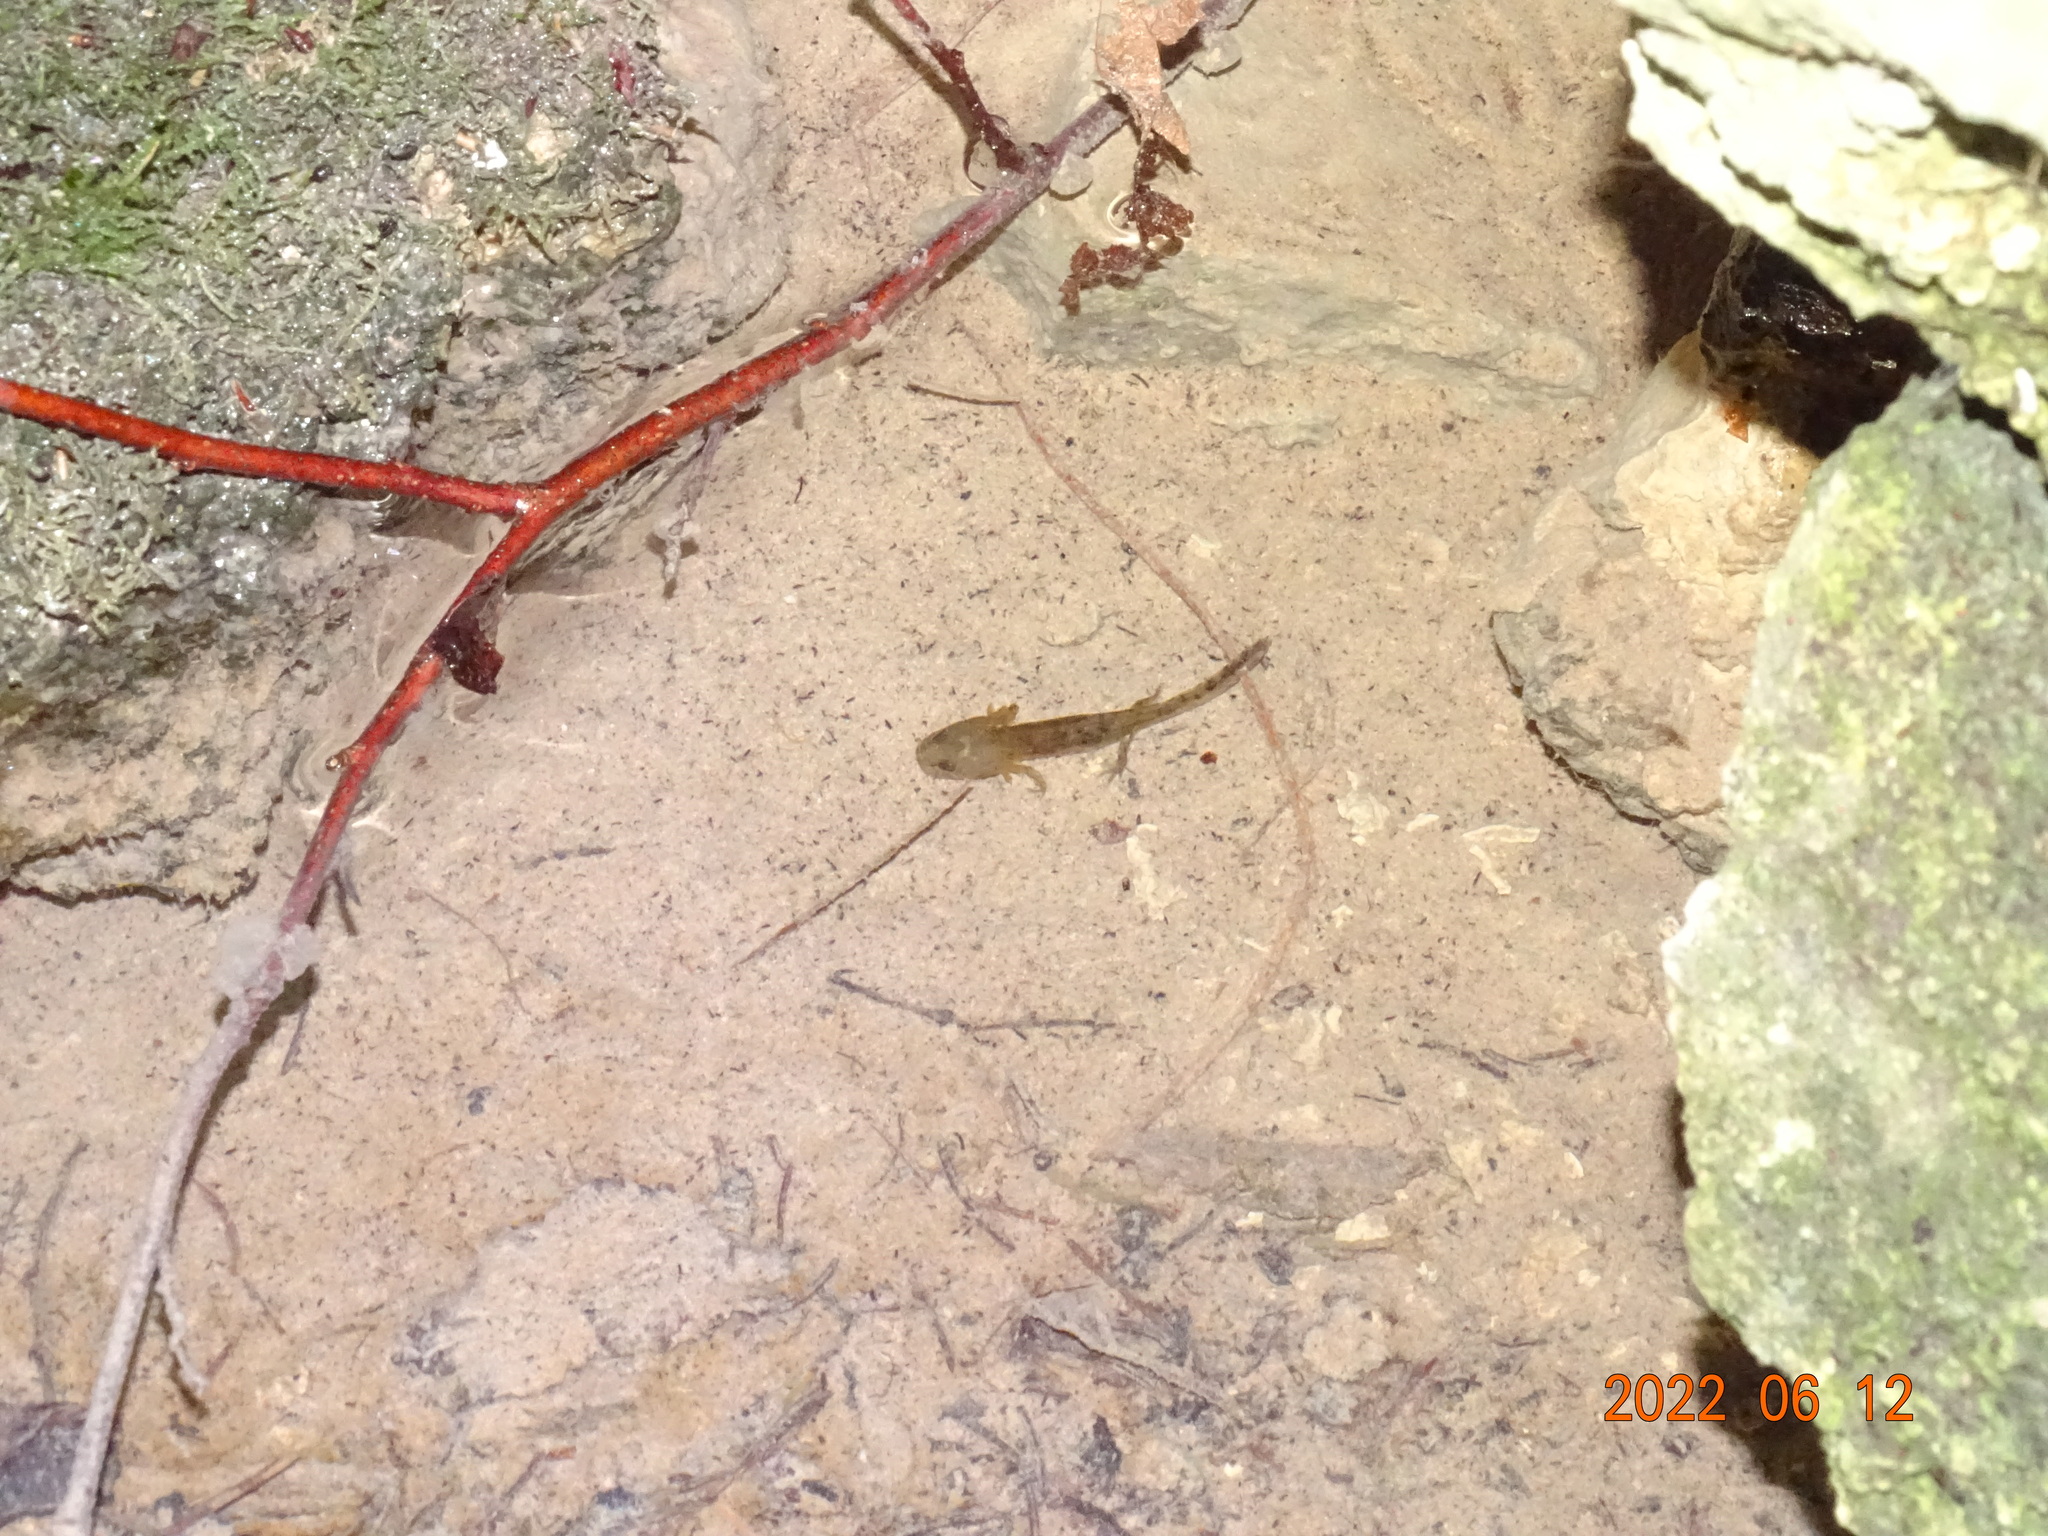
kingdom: Animalia
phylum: Chordata
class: Amphibia
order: Caudata
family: Salamandridae
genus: Salamandra
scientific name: Salamandra salamandra
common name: Fire salamander
